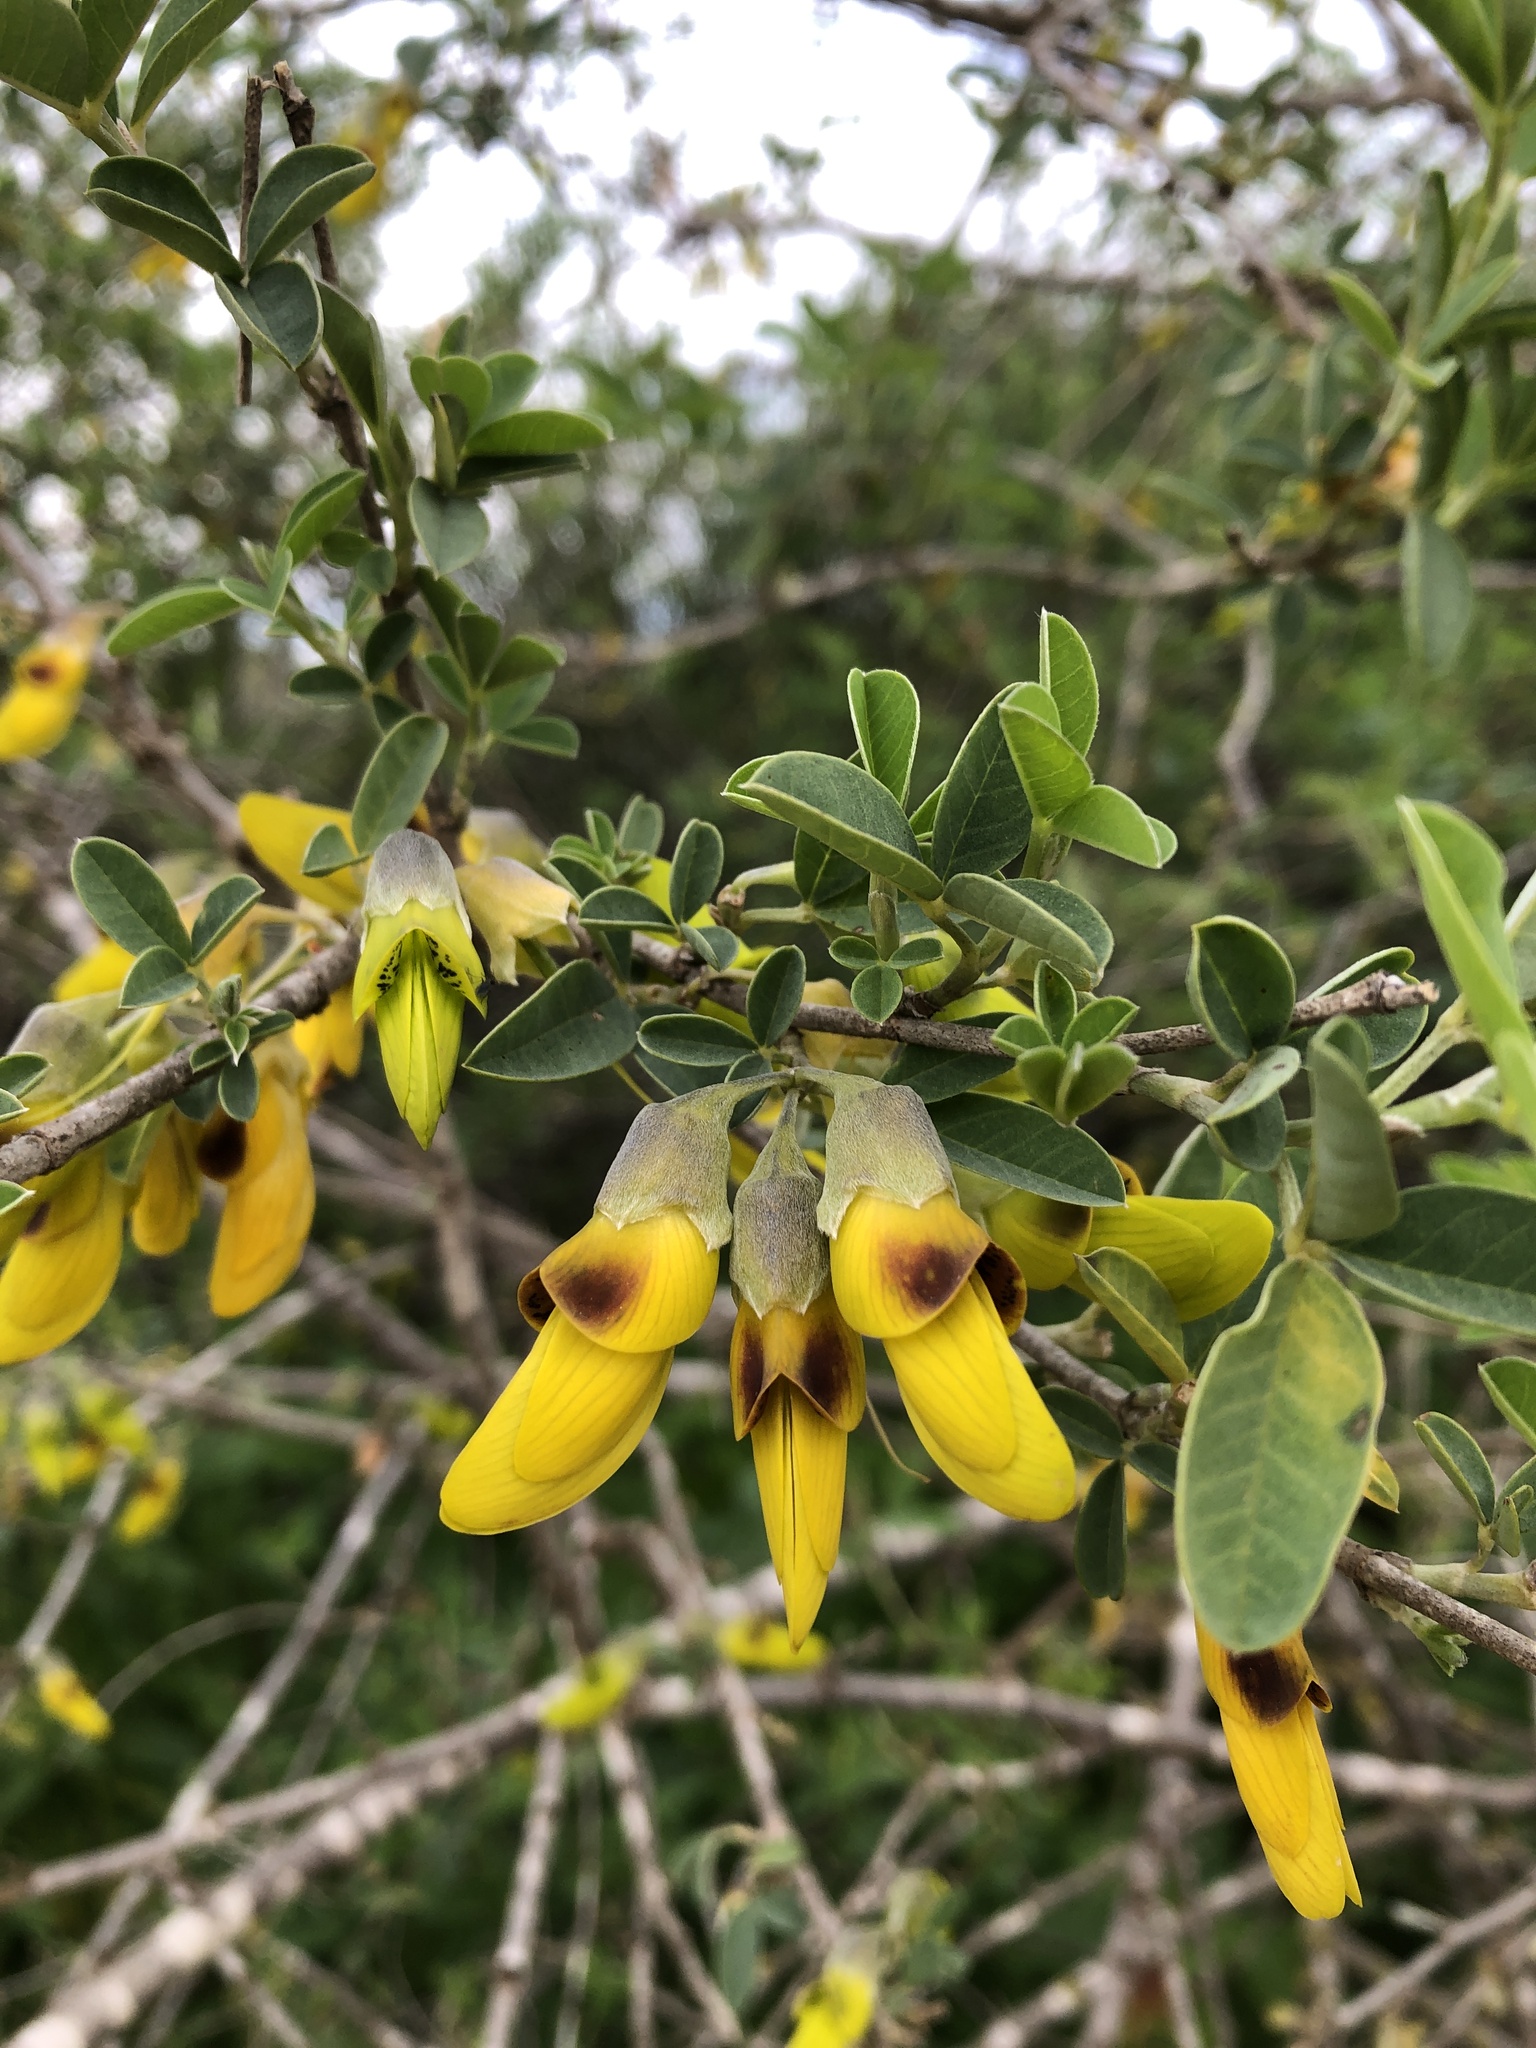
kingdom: Plantae
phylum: Tracheophyta
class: Magnoliopsida
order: Fabales
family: Fabaceae
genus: Anagyris
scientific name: Anagyris foetida
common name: Stinking bean trefoil
